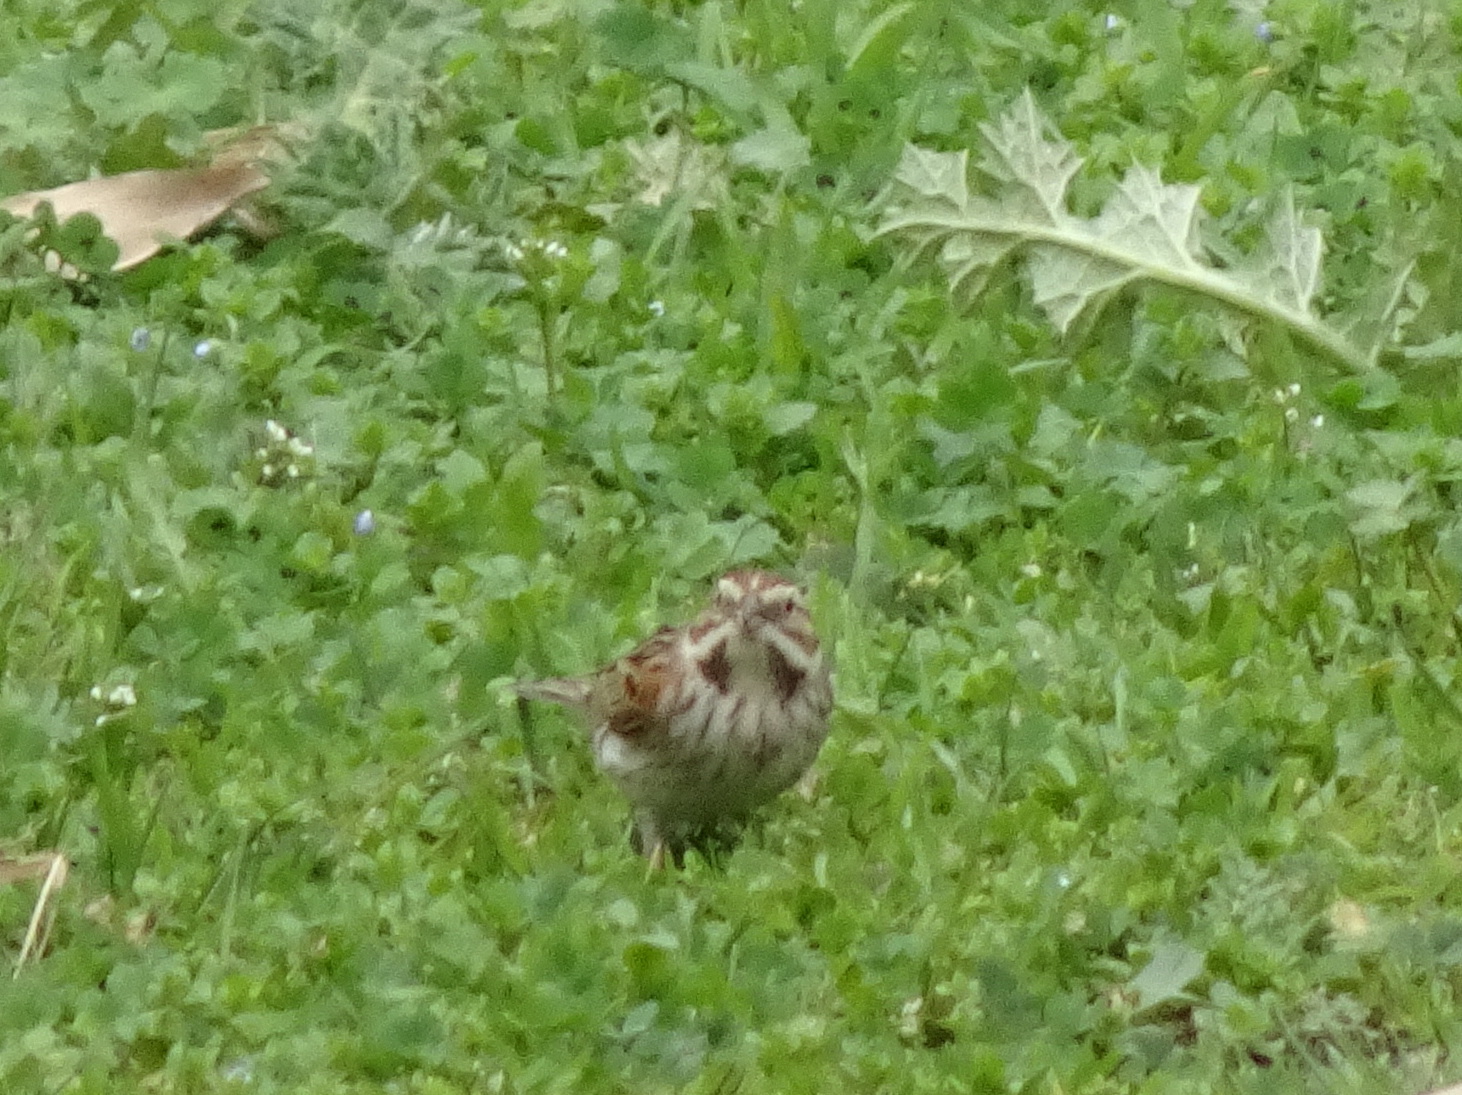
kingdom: Animalia
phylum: Chordata
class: Aves
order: Passeriformes
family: Emberizidae
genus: Emberiza
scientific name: Emberiza schoeniclus
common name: Reed bunting
